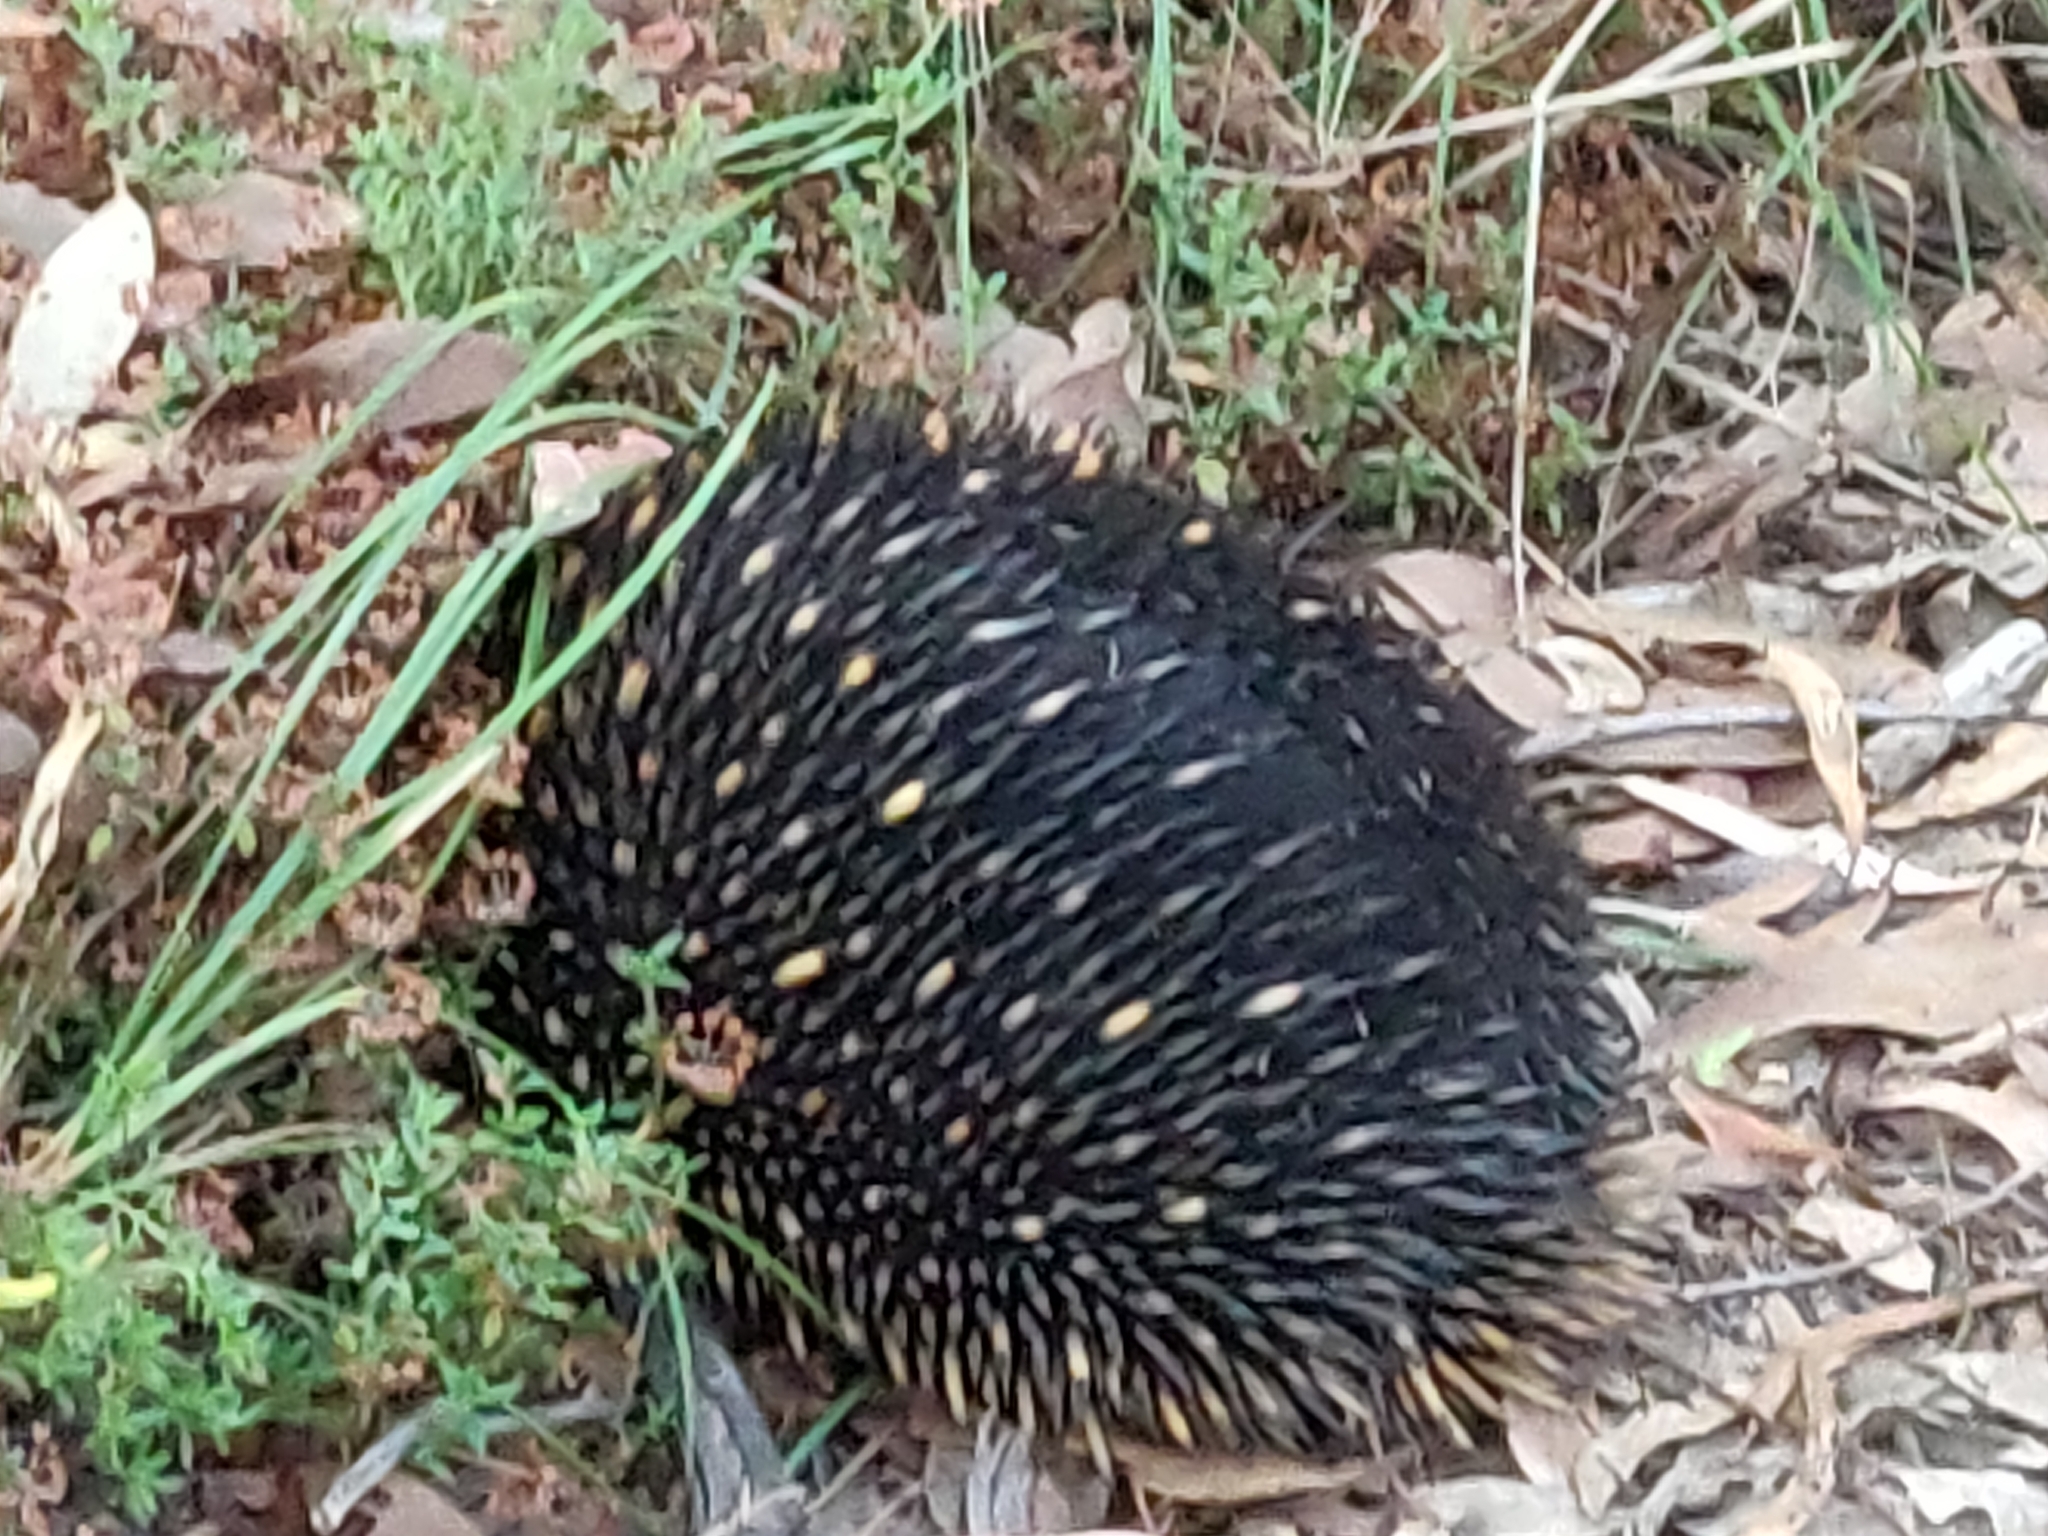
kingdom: Animalia
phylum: Chordata
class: Mammalia
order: Monotremata
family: Tachyglossidae
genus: Tachyglossus
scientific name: Tachyglossus aculeatus
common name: Short-beaked echidna
